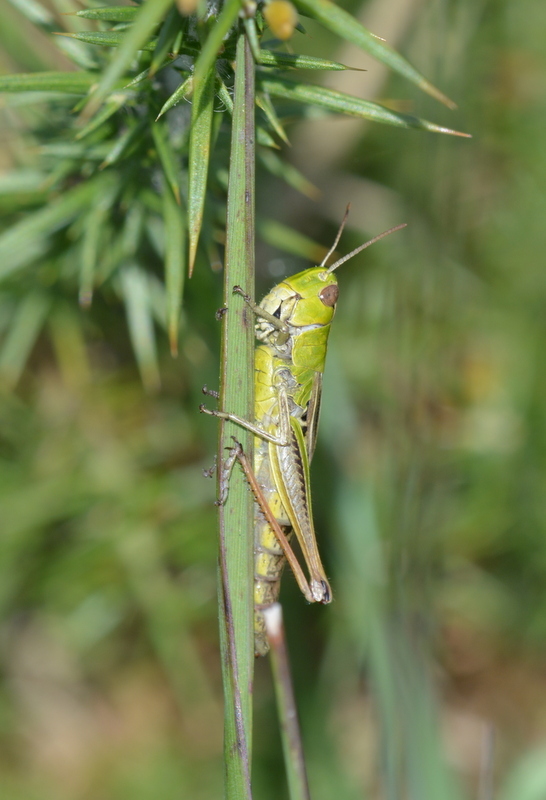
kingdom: Animalia
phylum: Arthropoda
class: Insecta
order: Orthoptera
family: Acrididae
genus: Pseudochorthippus
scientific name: Pseudochorthippus parallelus
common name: Meadow grasshopper
